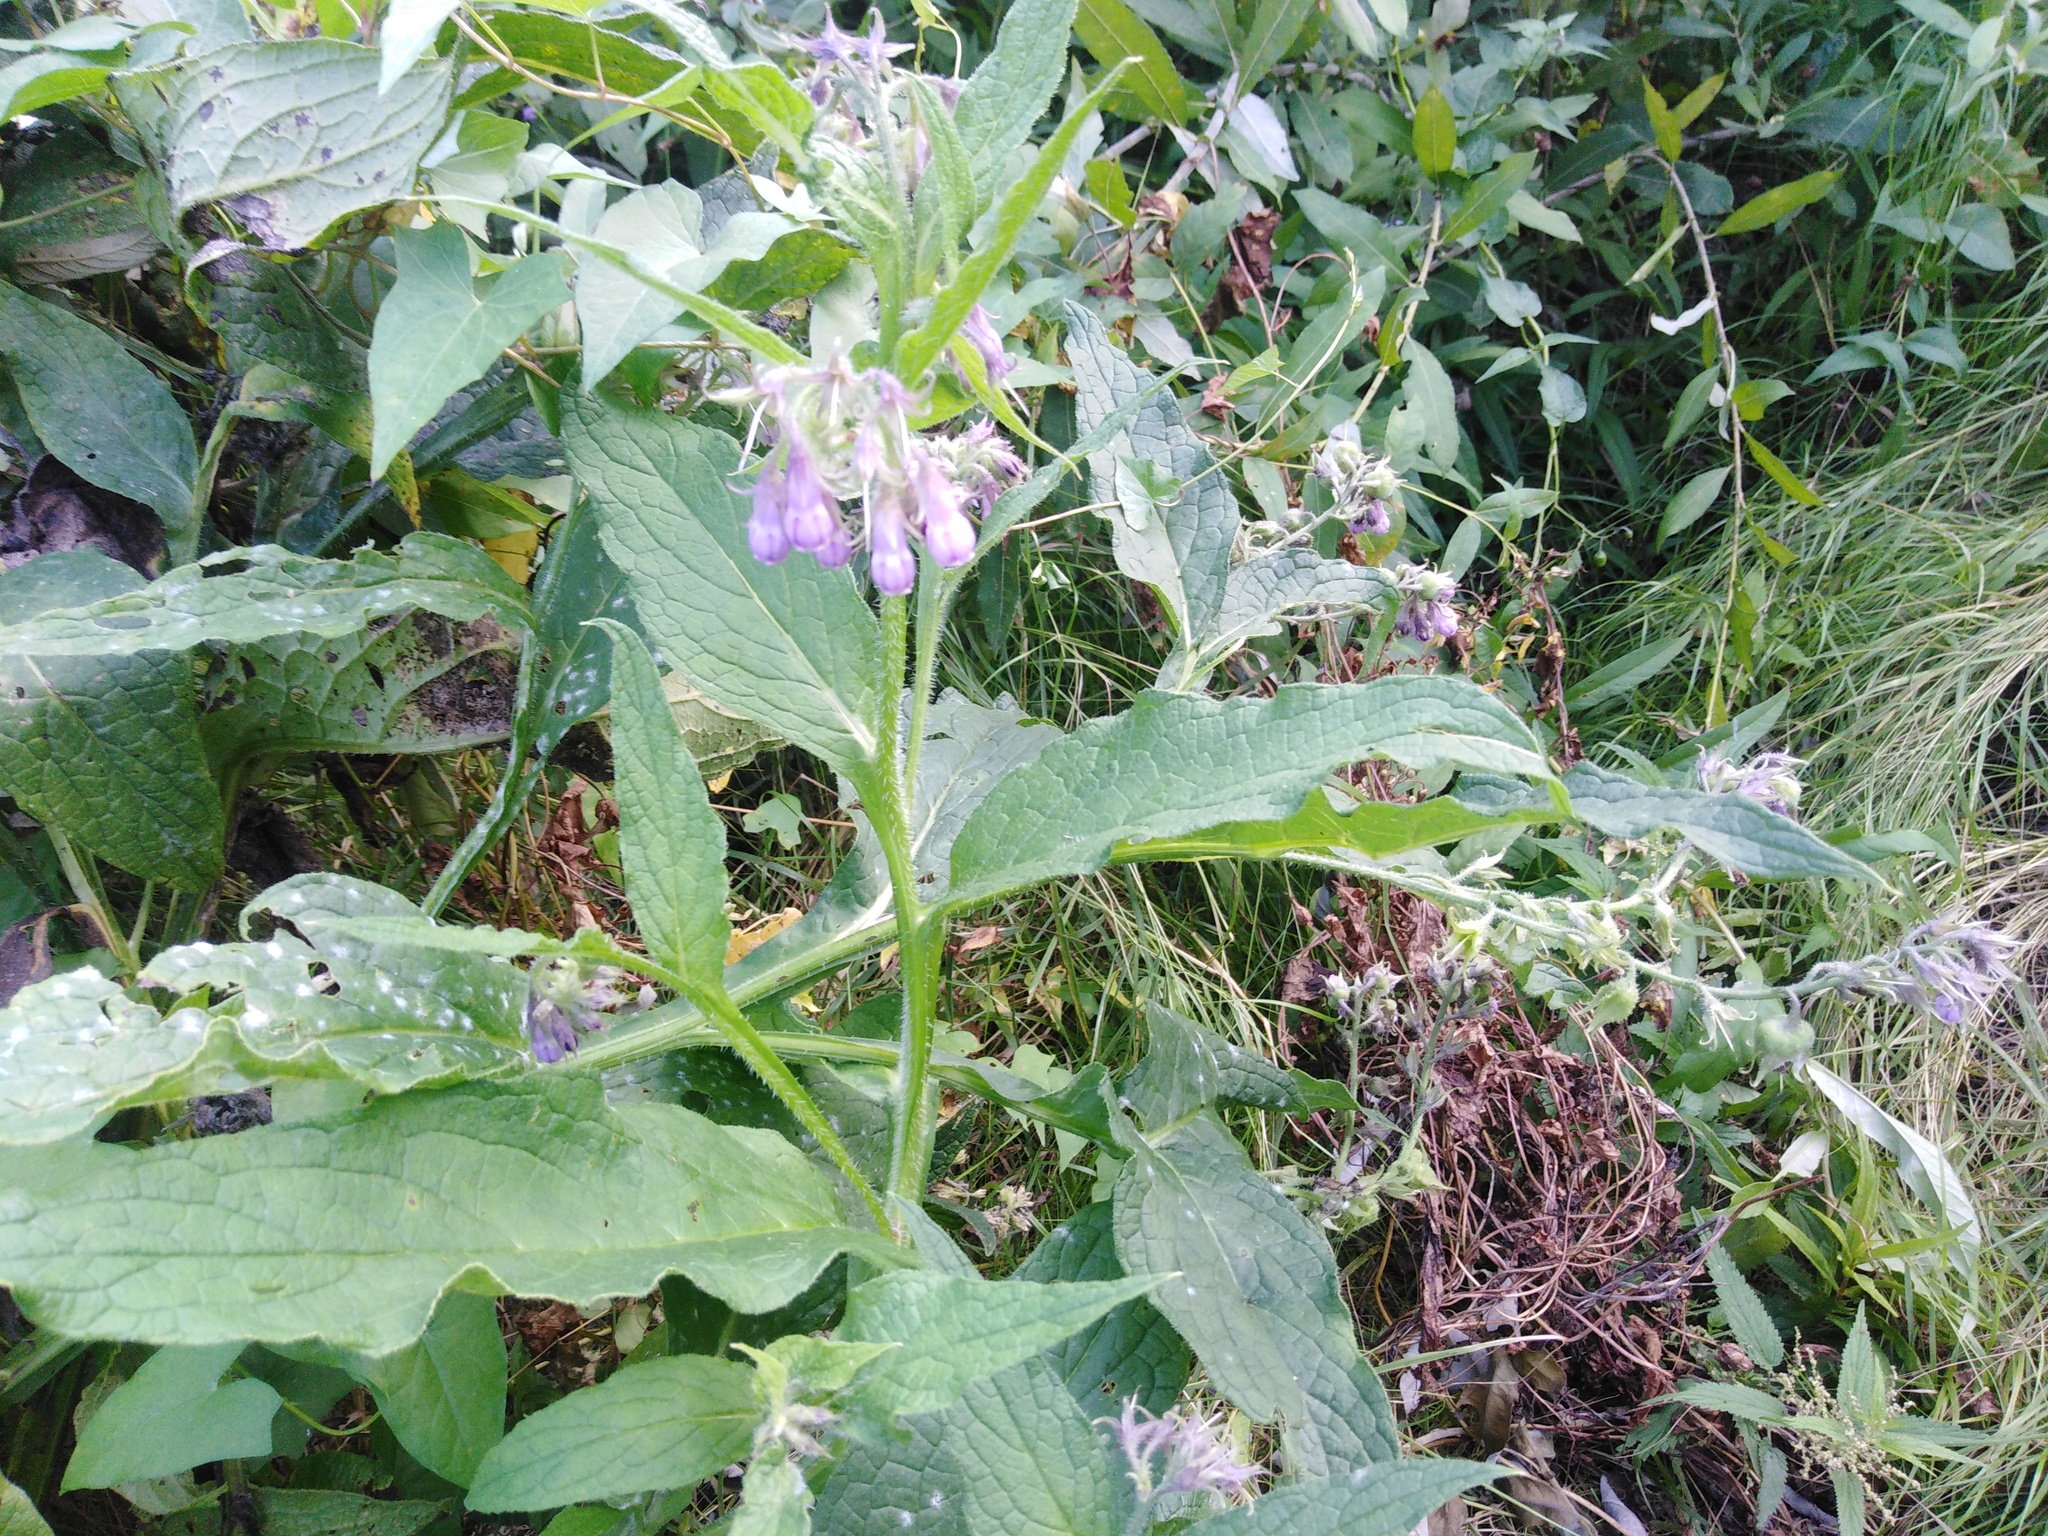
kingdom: Plantae
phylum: Tracheophyta
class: Magnoliopsida
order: Boraginales
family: Boraginaceae
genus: Symphytum
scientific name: Symphytum officinale
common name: Common comfrey
